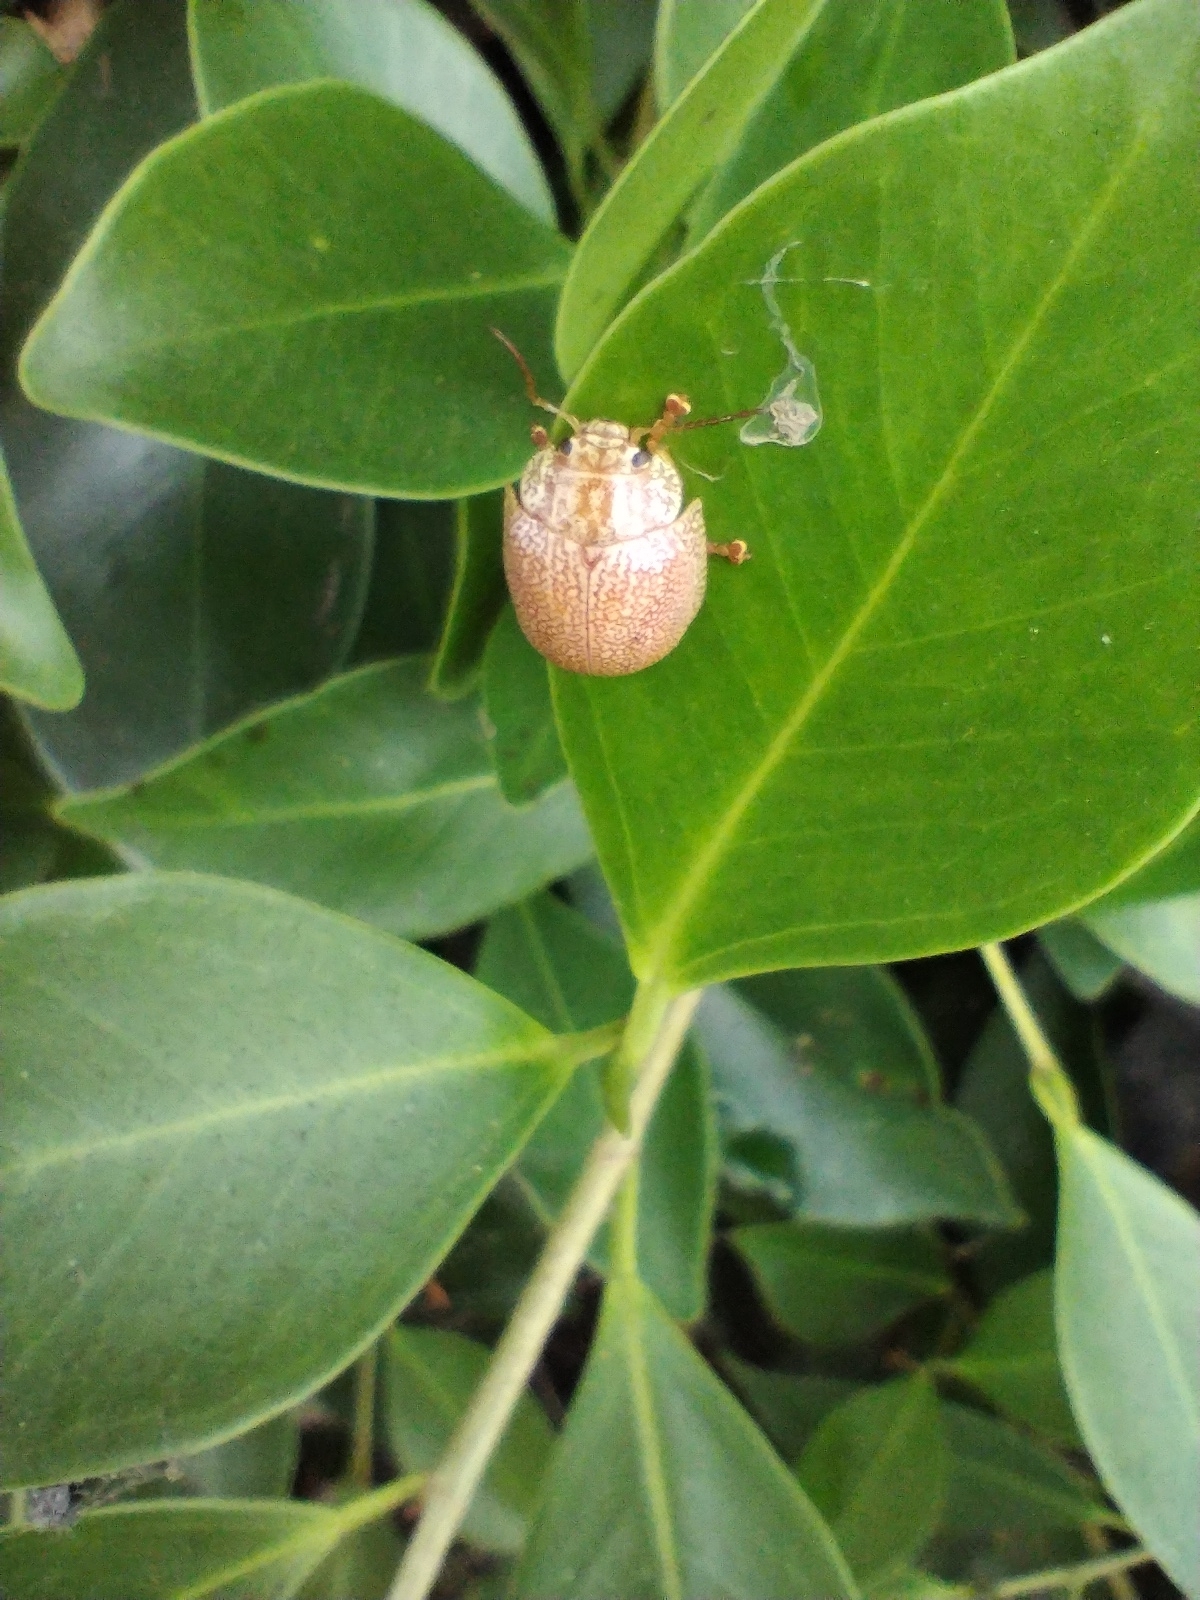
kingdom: Animalia
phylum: Arthropoda
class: Insecta
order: Coleoptera
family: Chrysomelidae
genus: Paropsis
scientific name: Paropsis
